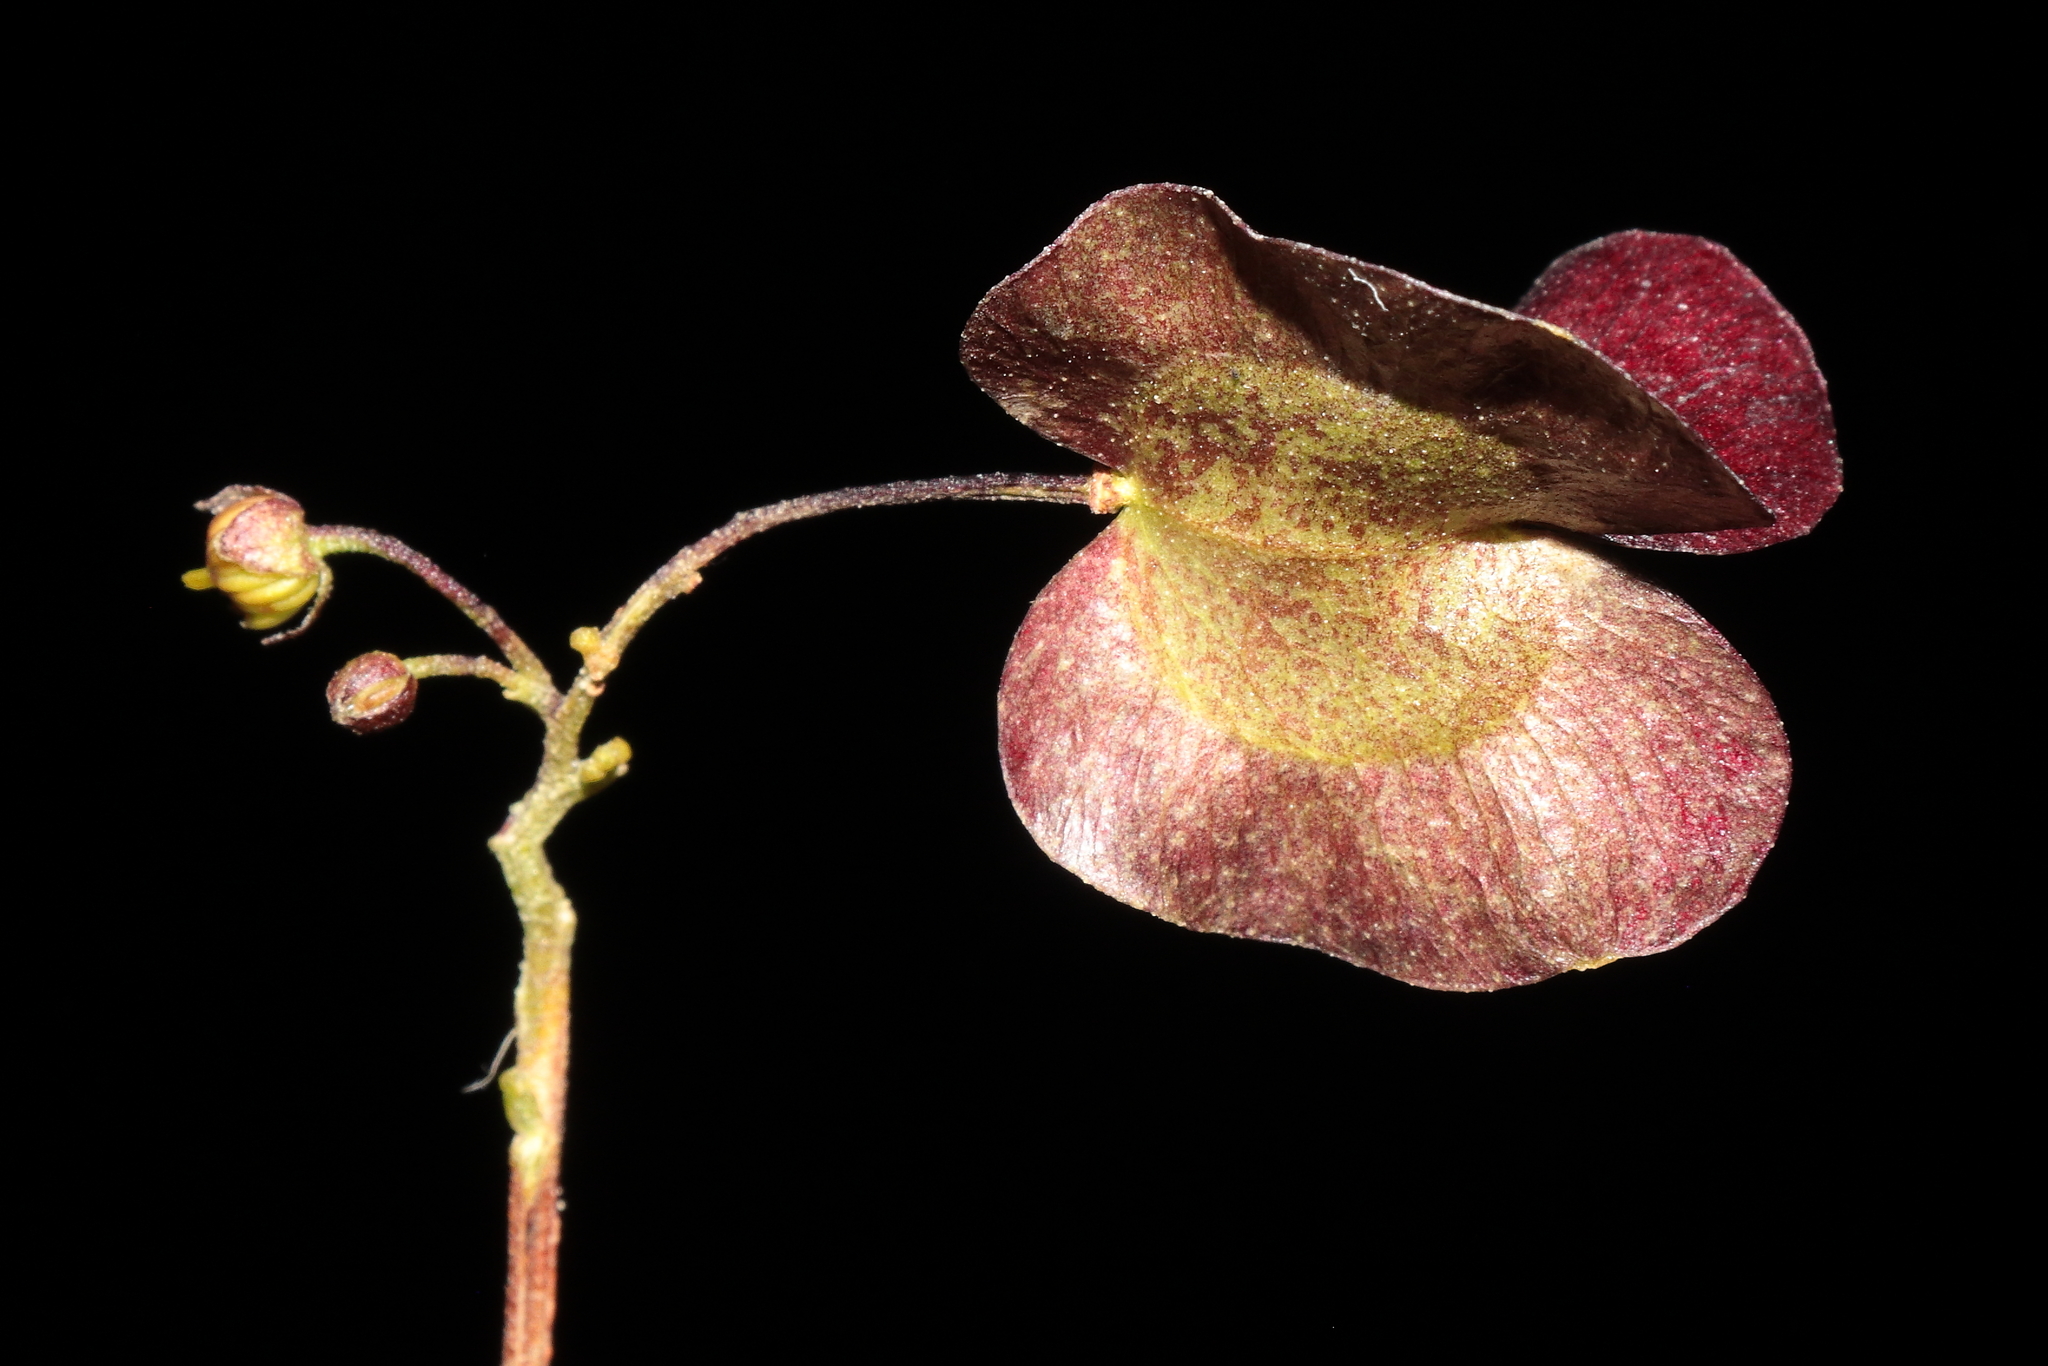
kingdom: Plantae
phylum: Tracheophyta
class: Magnoliopsida
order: Sapindales
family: Sapindaceae
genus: Dodonaea
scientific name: Dodonaea viscosa
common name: Hopbush
